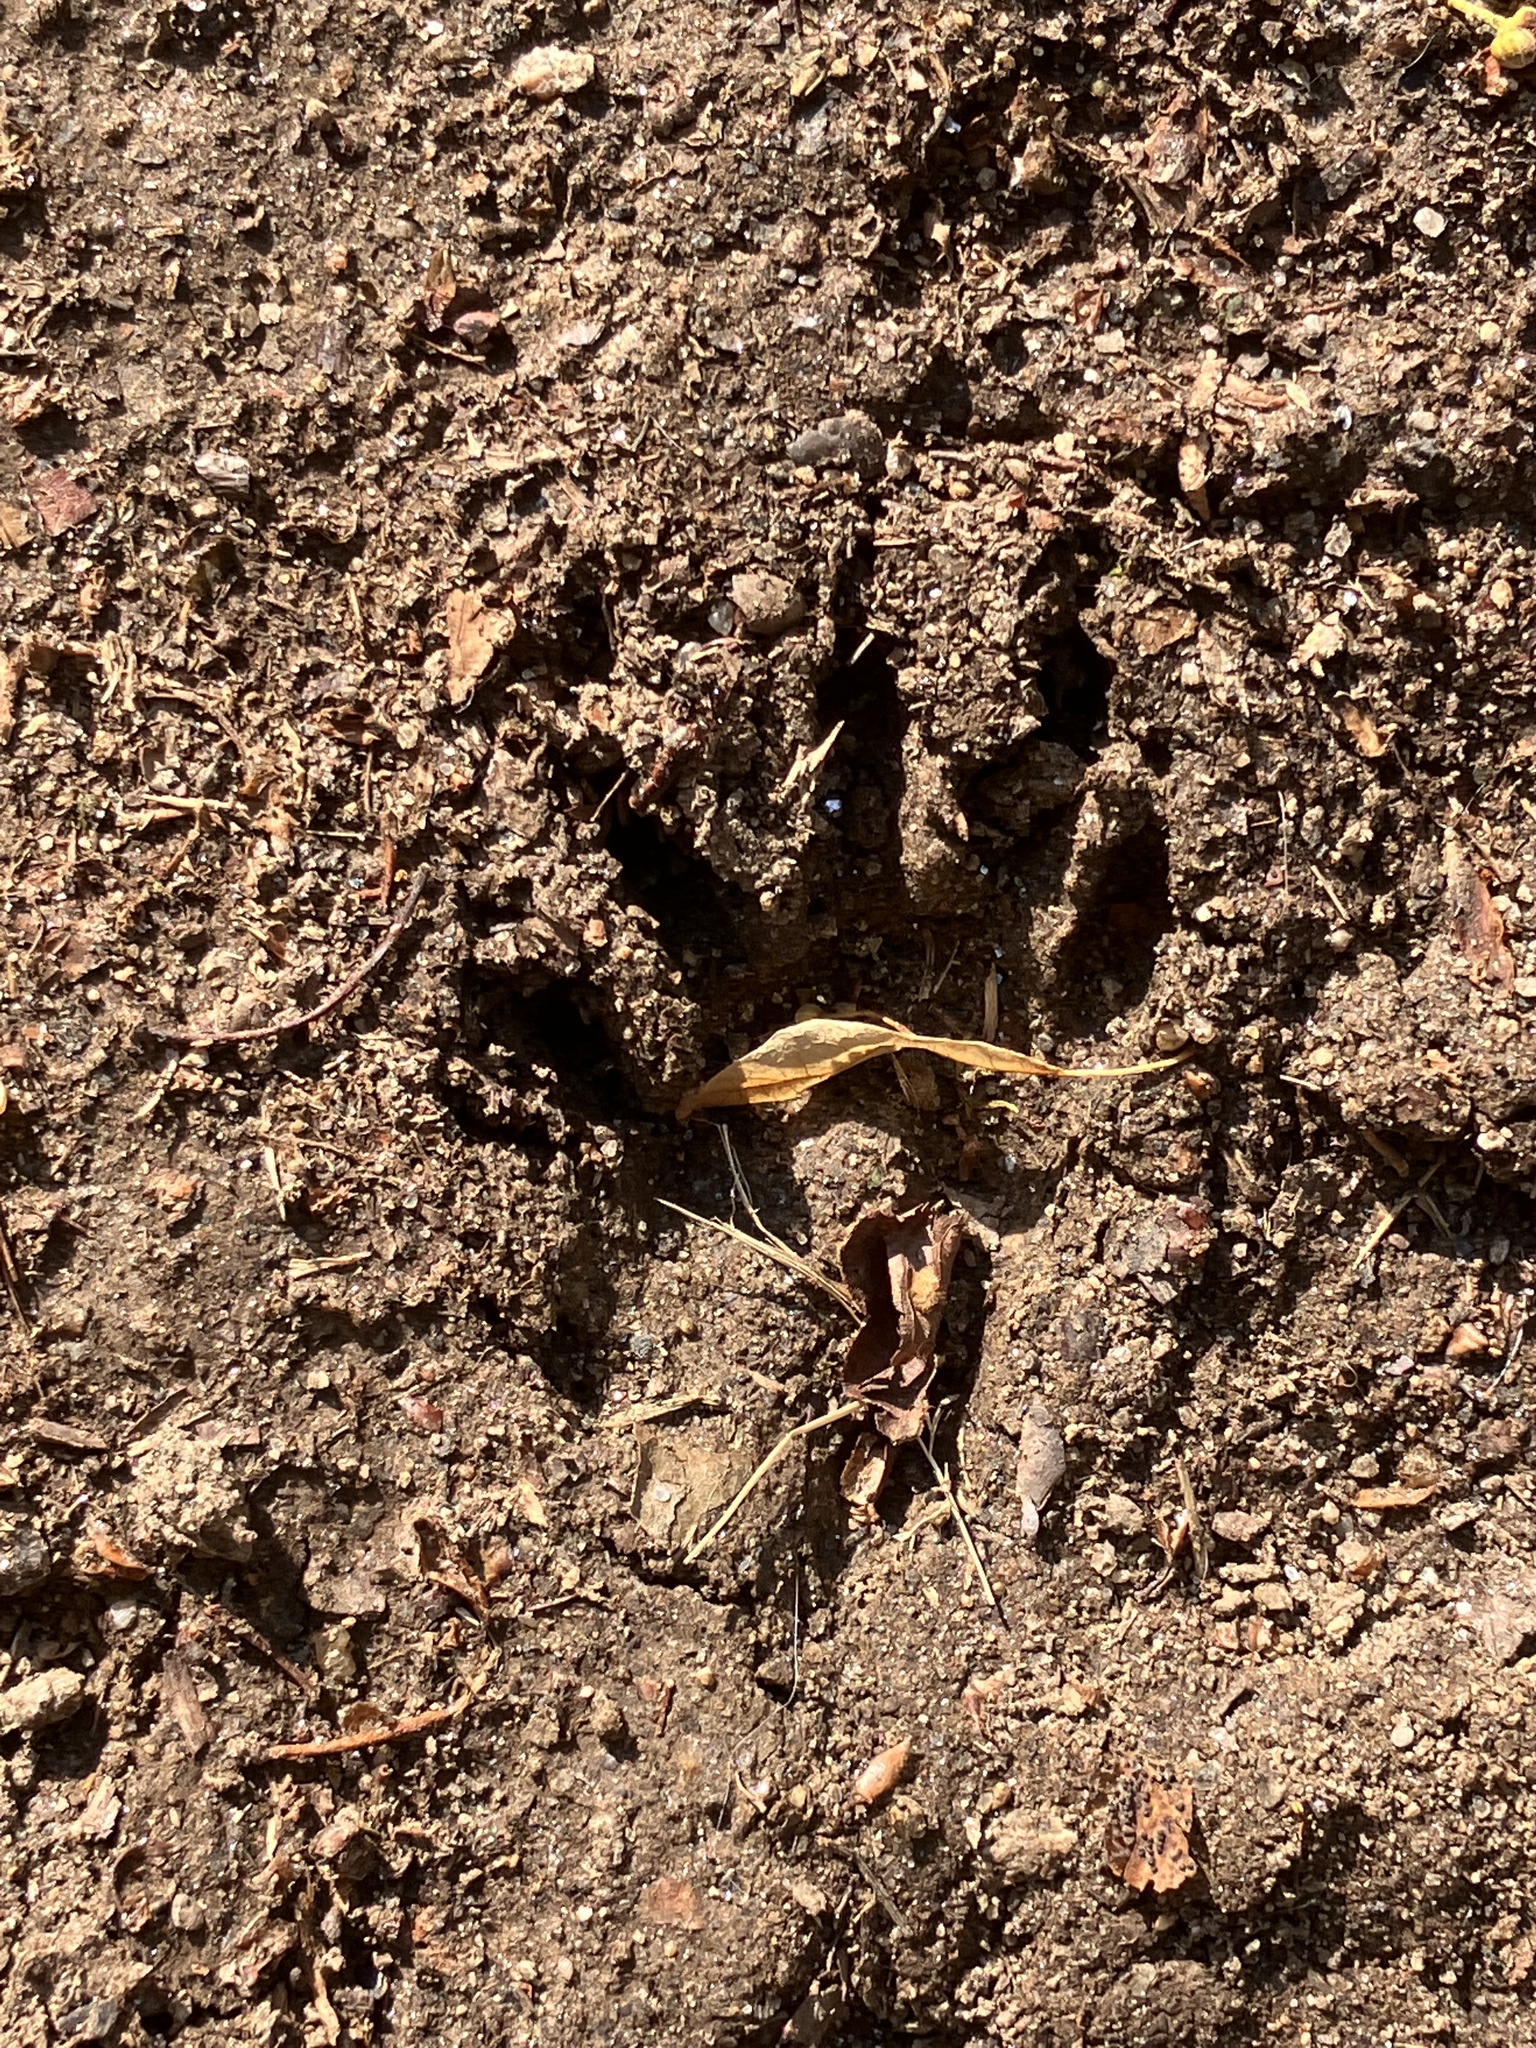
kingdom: Animalia
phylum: Chordata
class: Mammalia
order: Carnivora
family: Procyonidae
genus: Procyon
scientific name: Procyon lotor
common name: Raccoon
